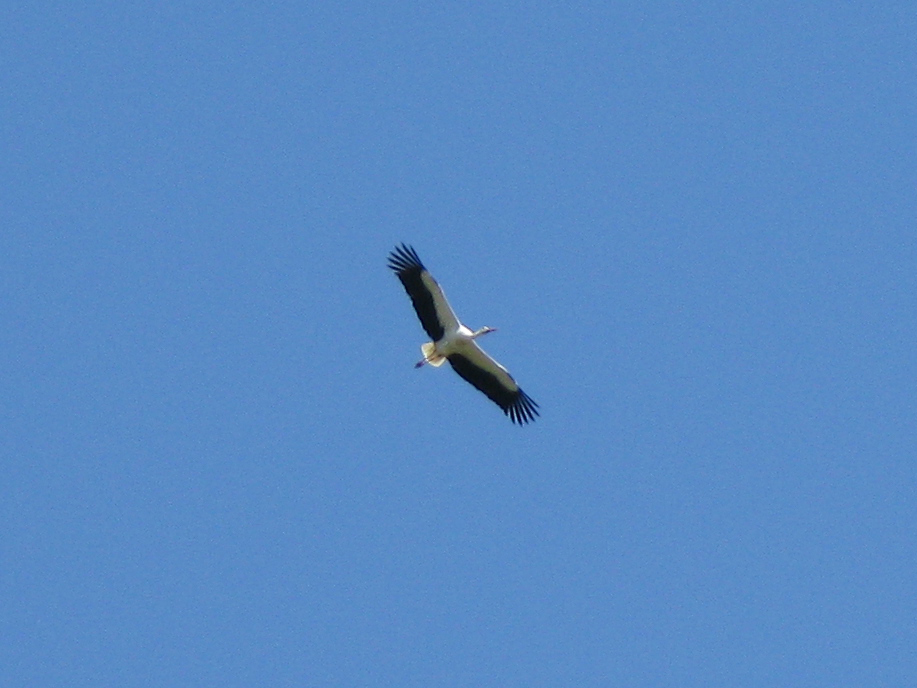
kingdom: Animalia
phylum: Chordata
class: Aves
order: Ciconiiformes
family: Ciconiidae
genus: Ciconia
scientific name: Ciconia ciconia
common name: White stork
